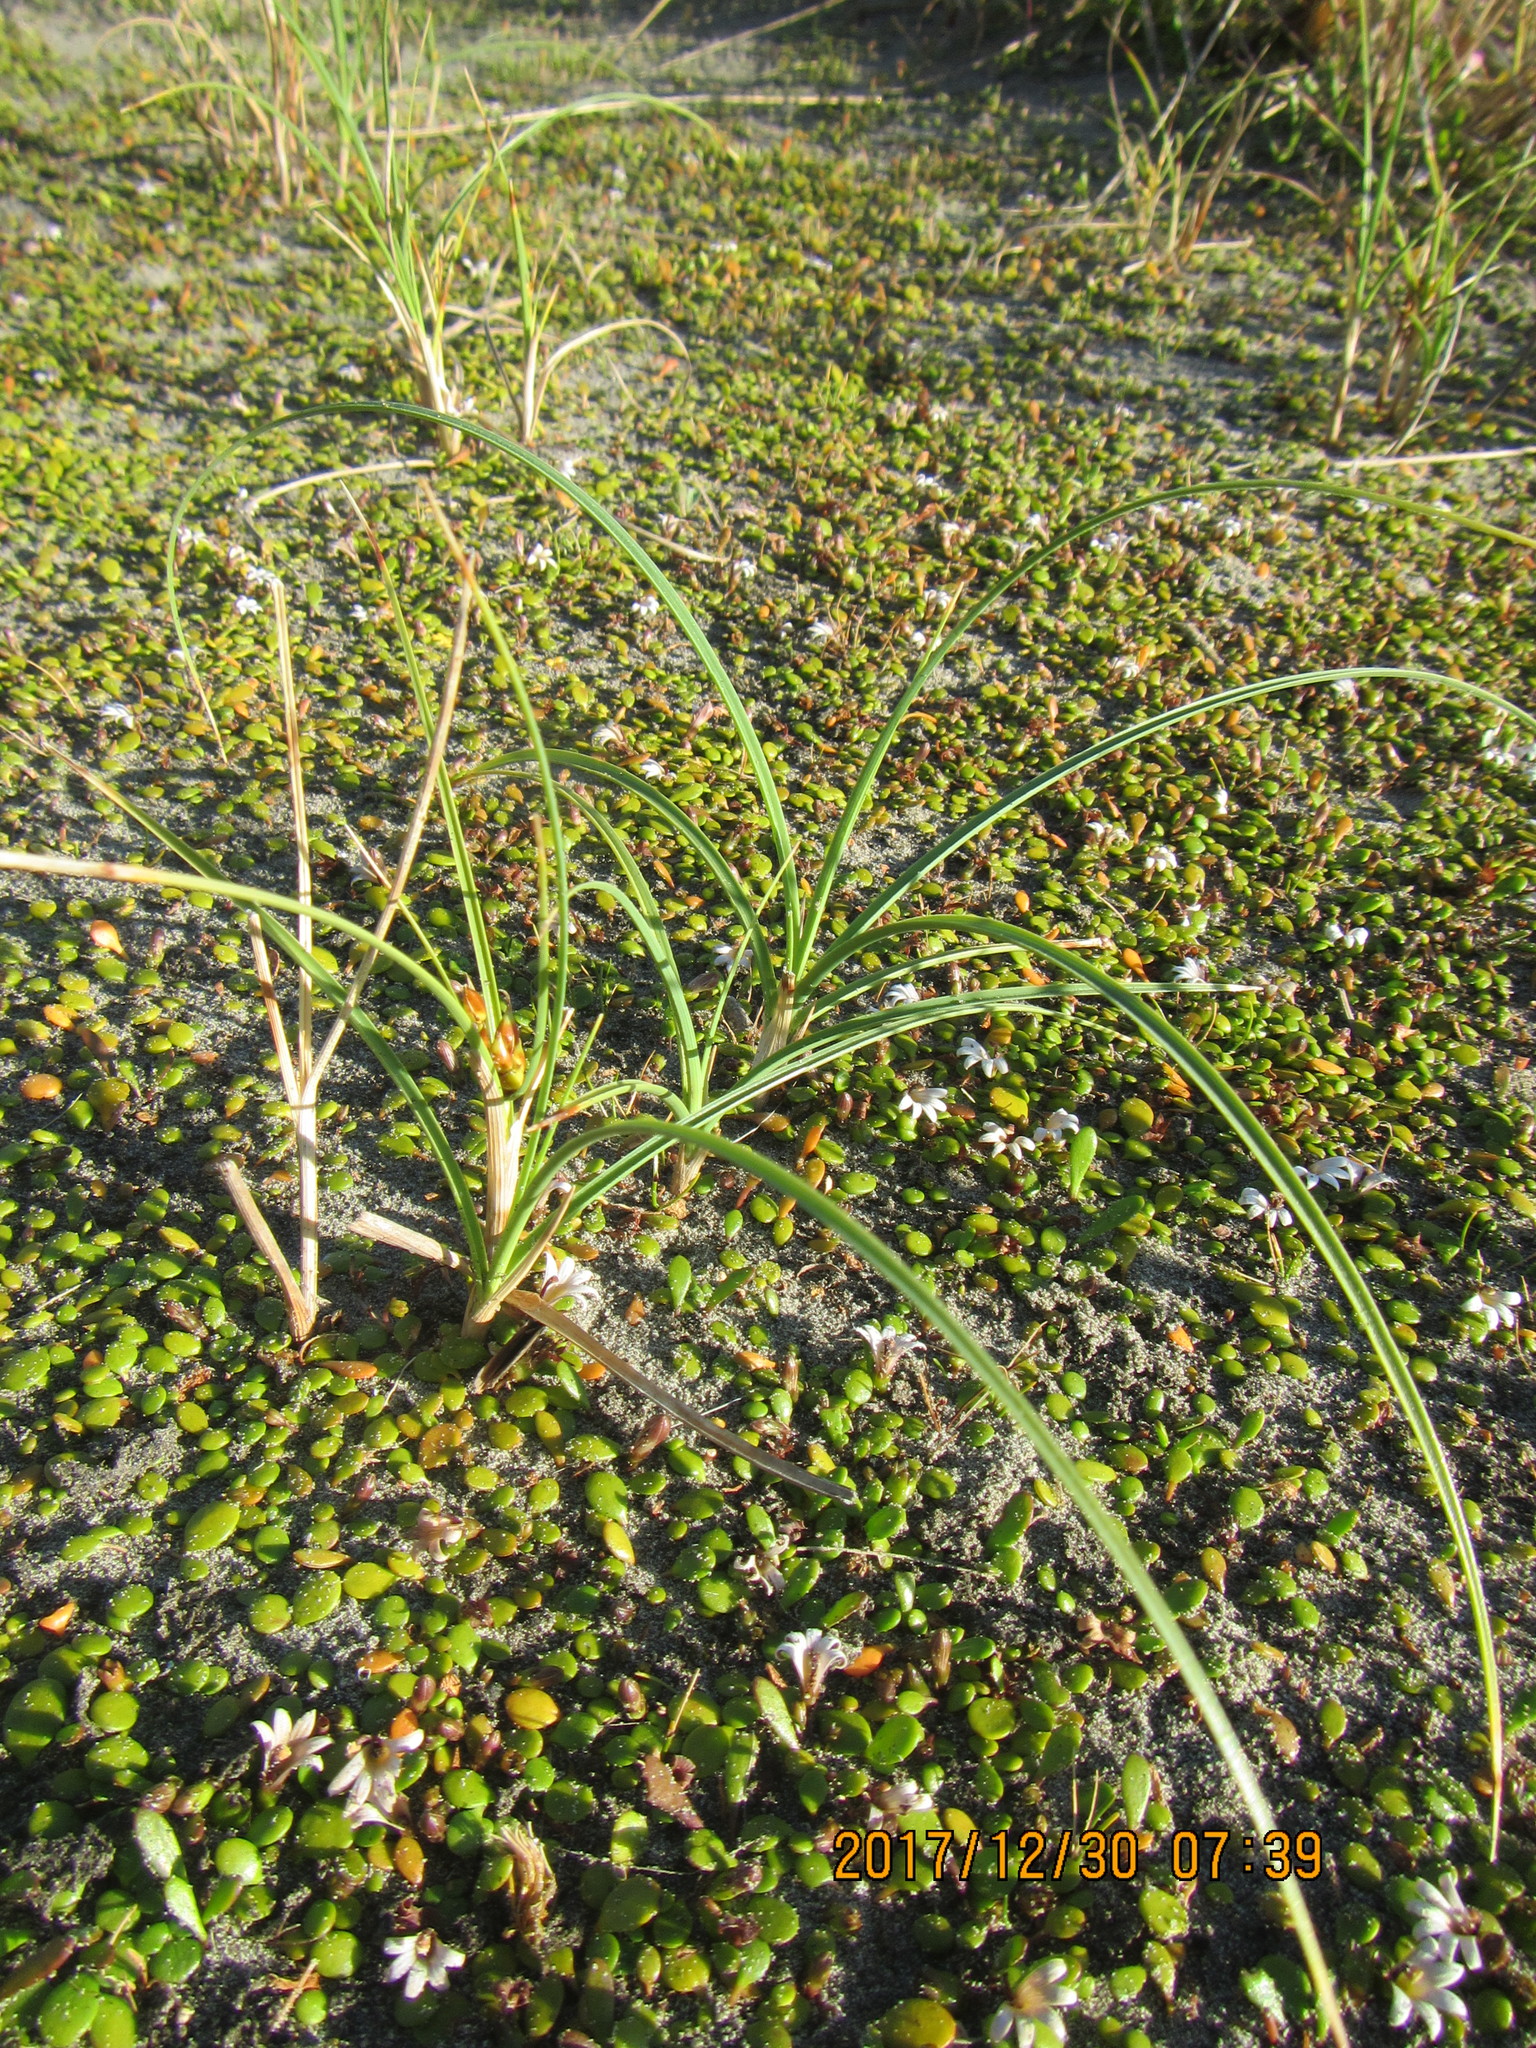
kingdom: Plantae
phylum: Tracheophyta
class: Liliopsida
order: Poales
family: Cyperaceae
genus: Carex
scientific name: Carex pumila
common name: Dwarf sedge
